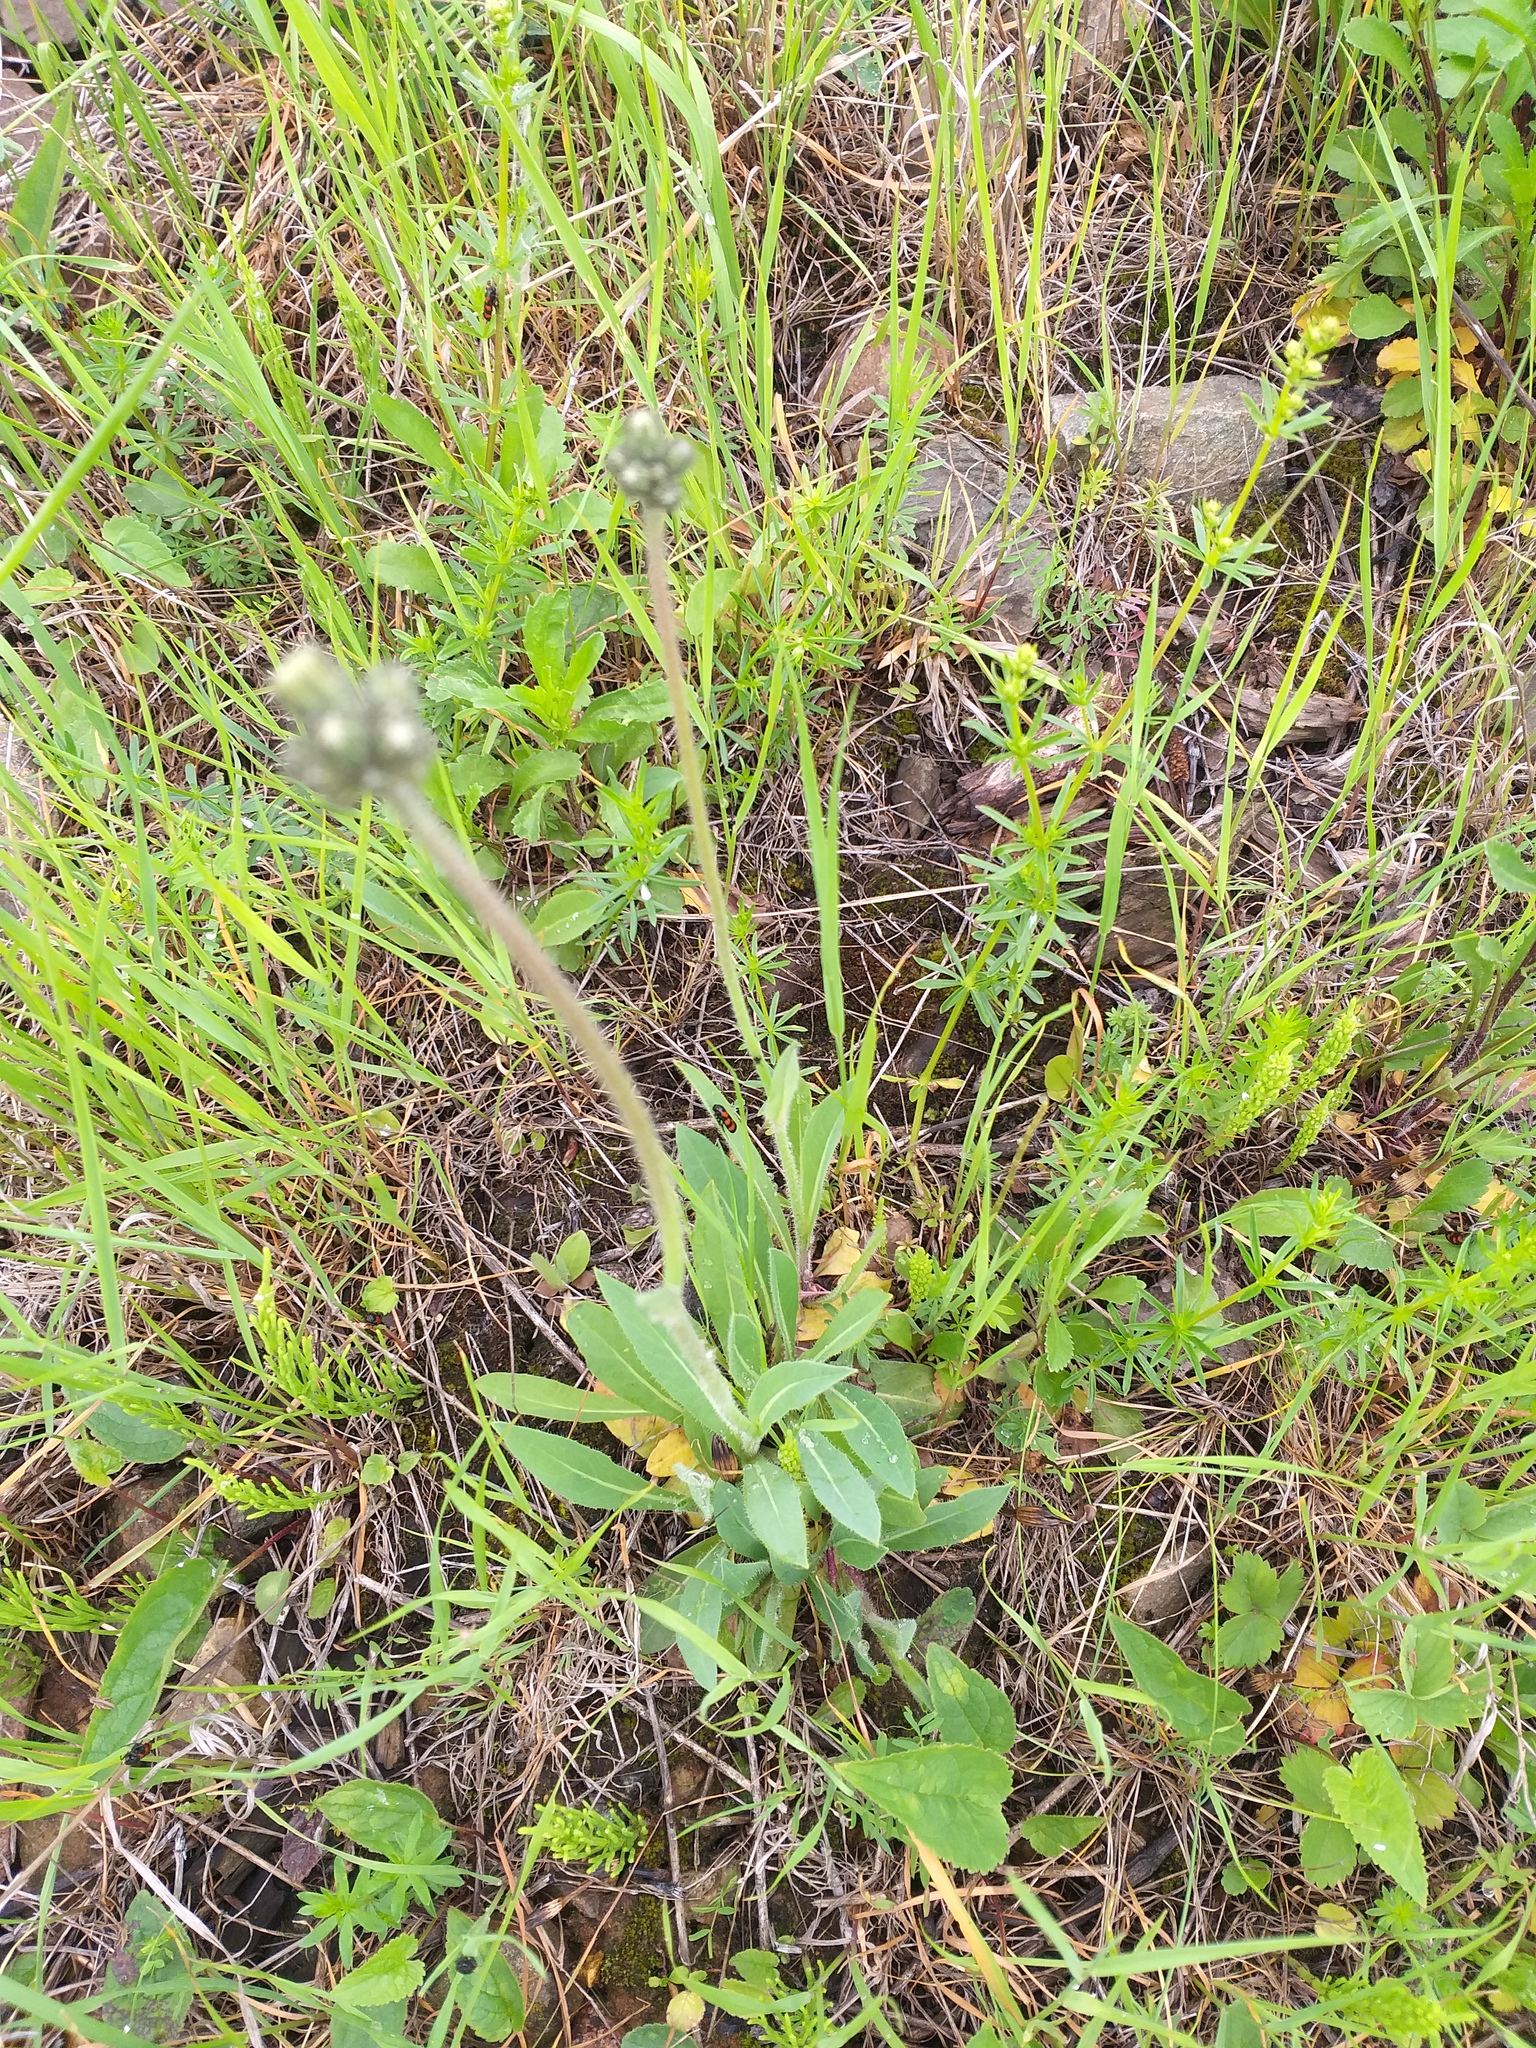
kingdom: Plantae
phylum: Tracheophyta
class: Magnoliopsida
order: Asterales
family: Asteraceae
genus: Pilosella
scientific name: Pilosella
